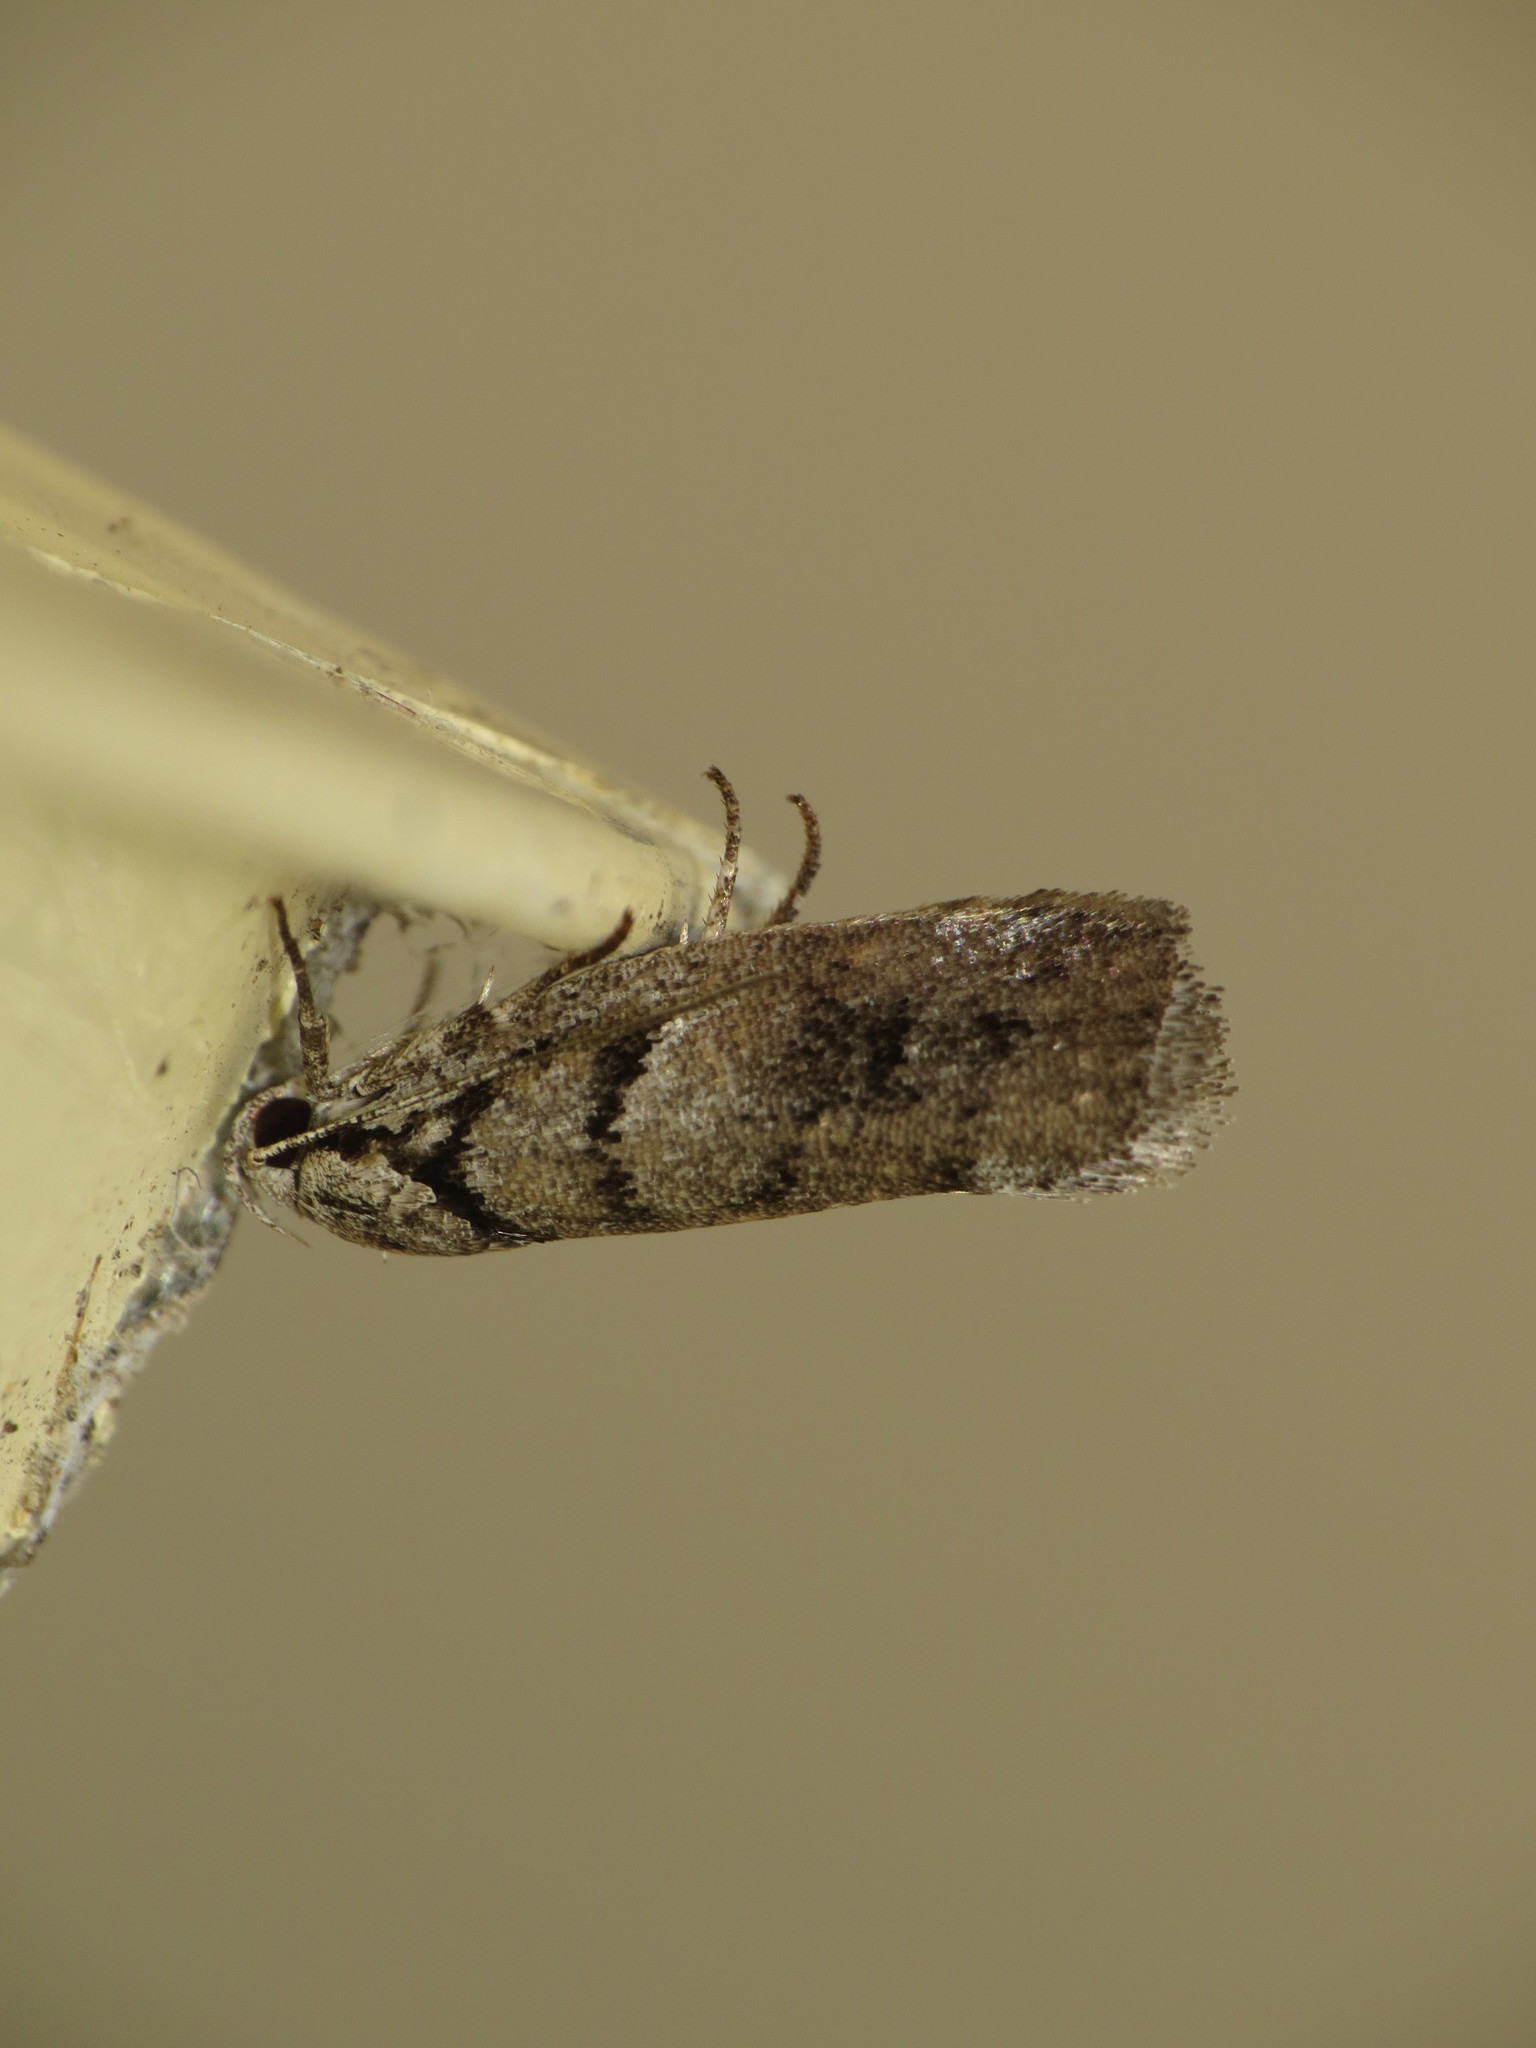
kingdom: Animalia
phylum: Arthropoda
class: Insecta
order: Lepidoptera
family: Xyloryctidae
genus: Lichenaula
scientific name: Lichenaula onychodes
